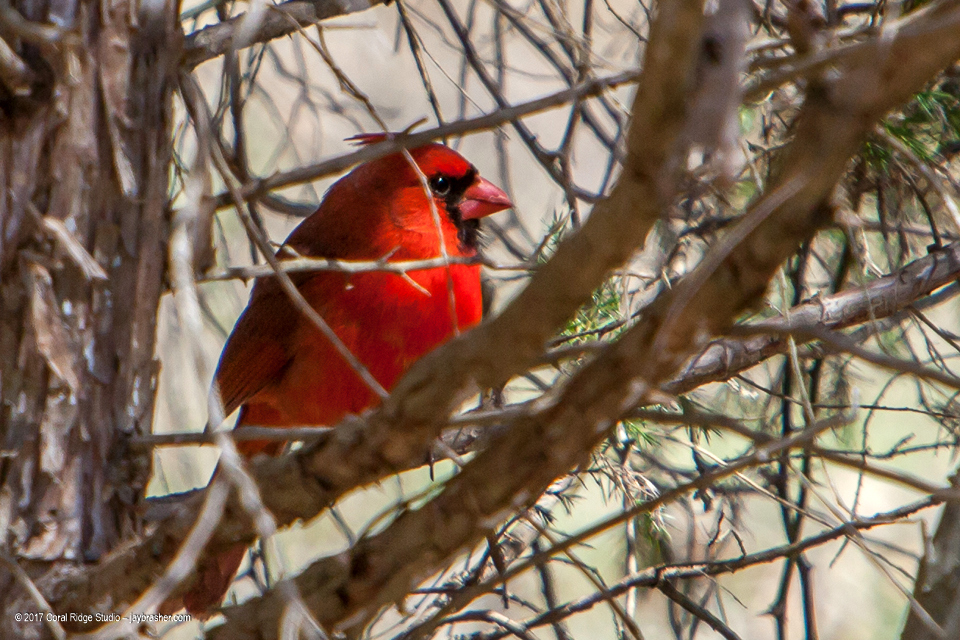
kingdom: Animalia
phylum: Chordata
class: Aves
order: Passeriformes
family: Cardinalidae
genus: Cardinalis
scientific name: Cardinalis cardinalis
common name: Northern cardinal
